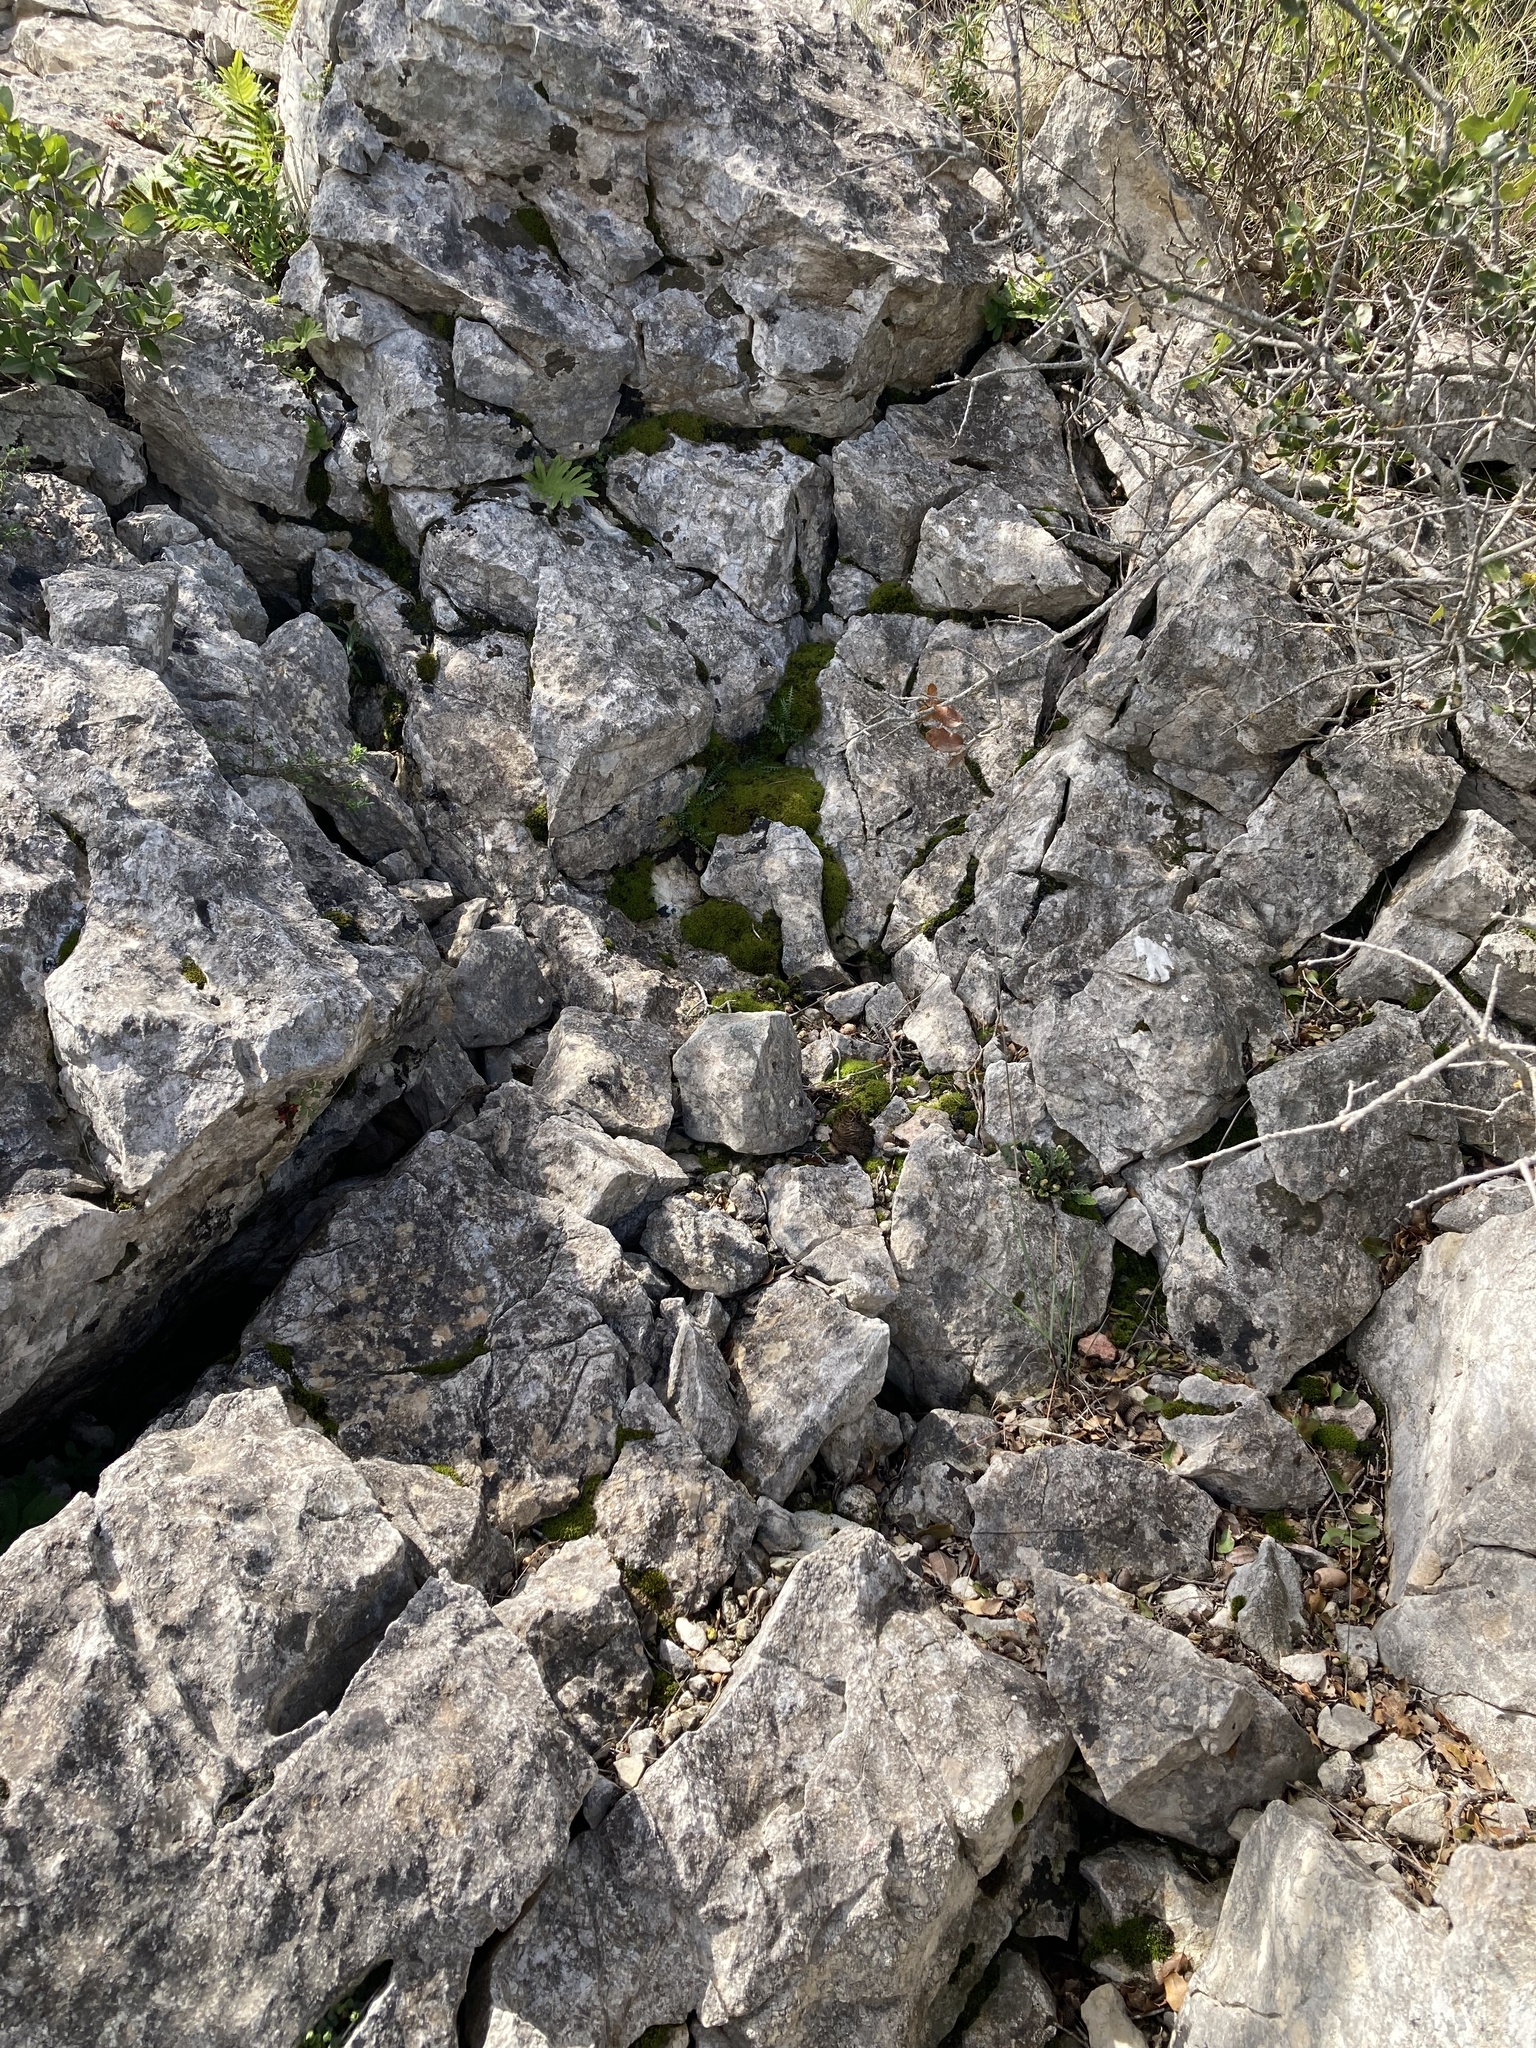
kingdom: Plantae
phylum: Tracheophyta
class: Polypodiopsida
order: Polypodiales
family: Aspleniaceae
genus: Asplenium
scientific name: Asplenium ceterach
